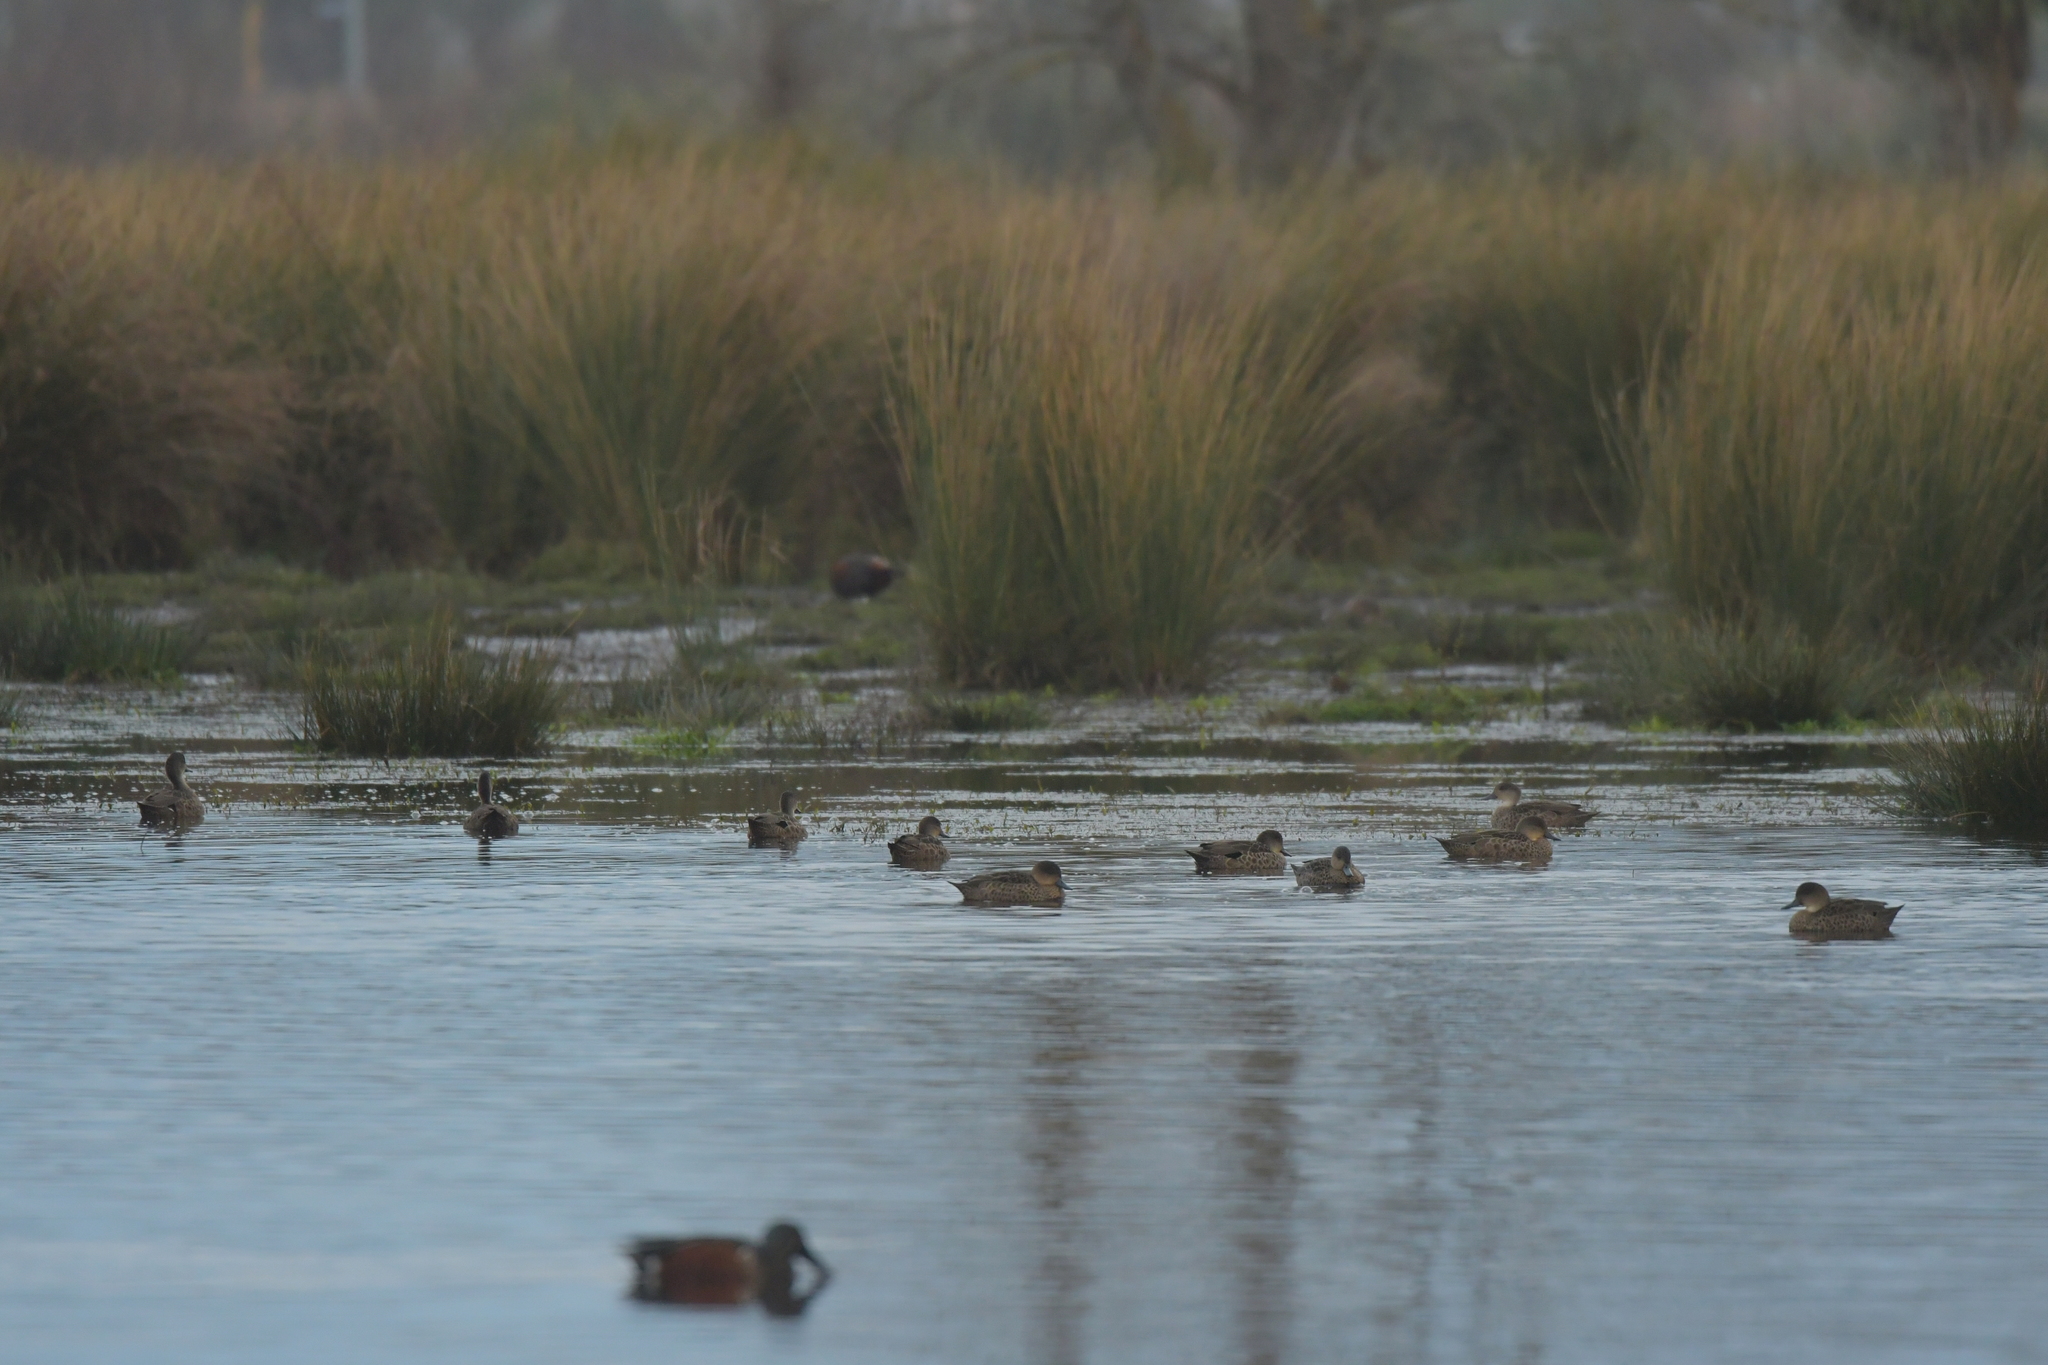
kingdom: Animalia
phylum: Chordata
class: Aves
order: Anseriformes
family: Anatidae
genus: Anas
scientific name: Anas gracilis
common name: Grey teal
